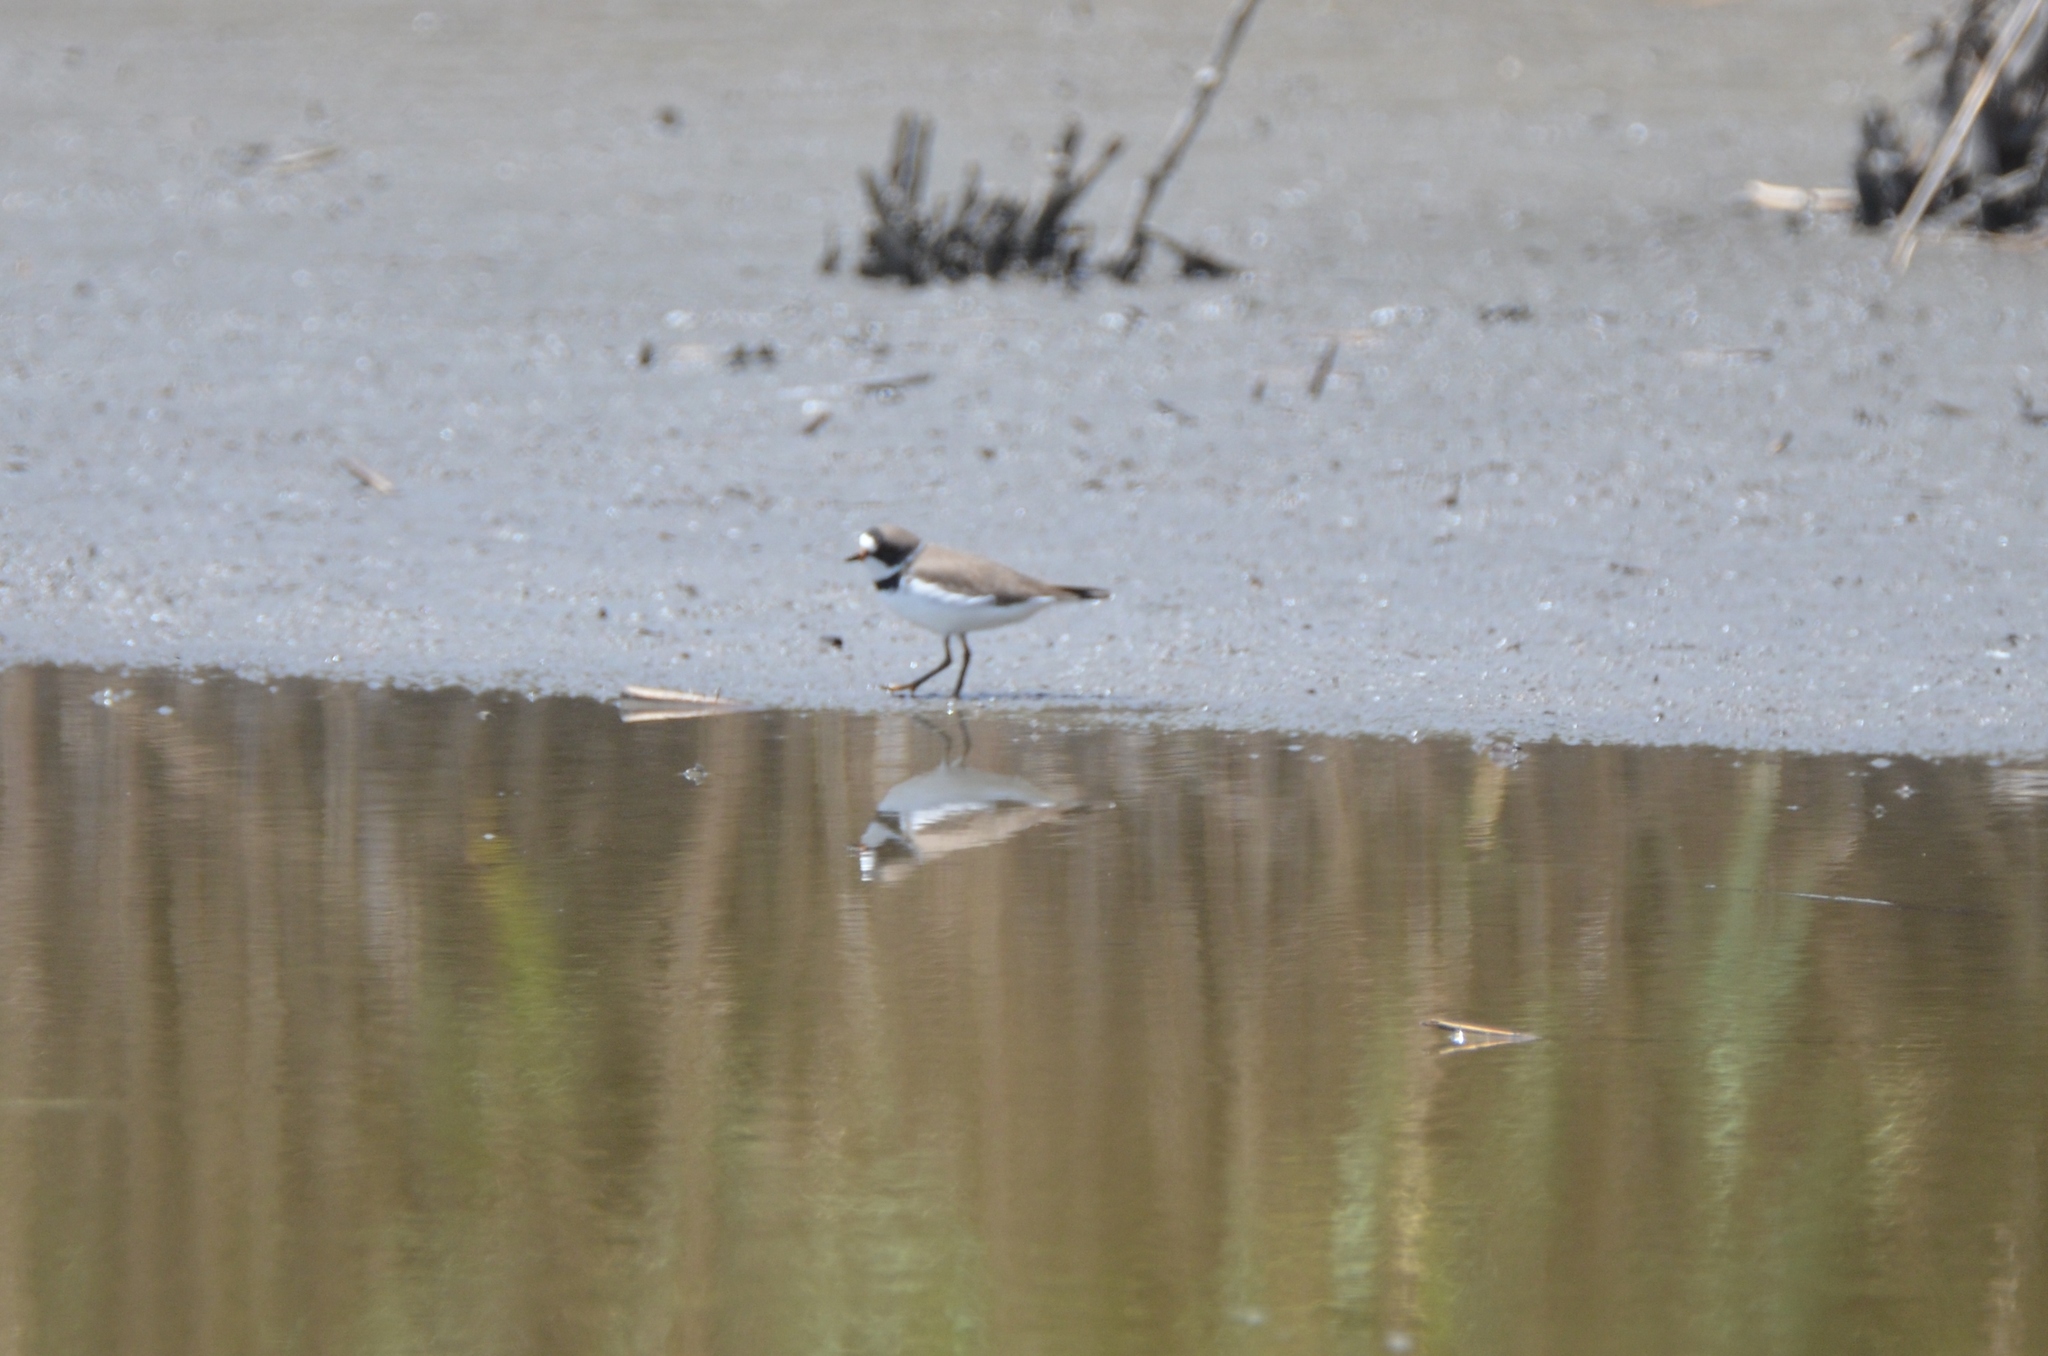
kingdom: Animalia
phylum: Chordata
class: Aves
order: Charadriiformes
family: Charadriidae
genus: Charadrius
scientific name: Charadrius semipalmatus
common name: Semipalmated plover
